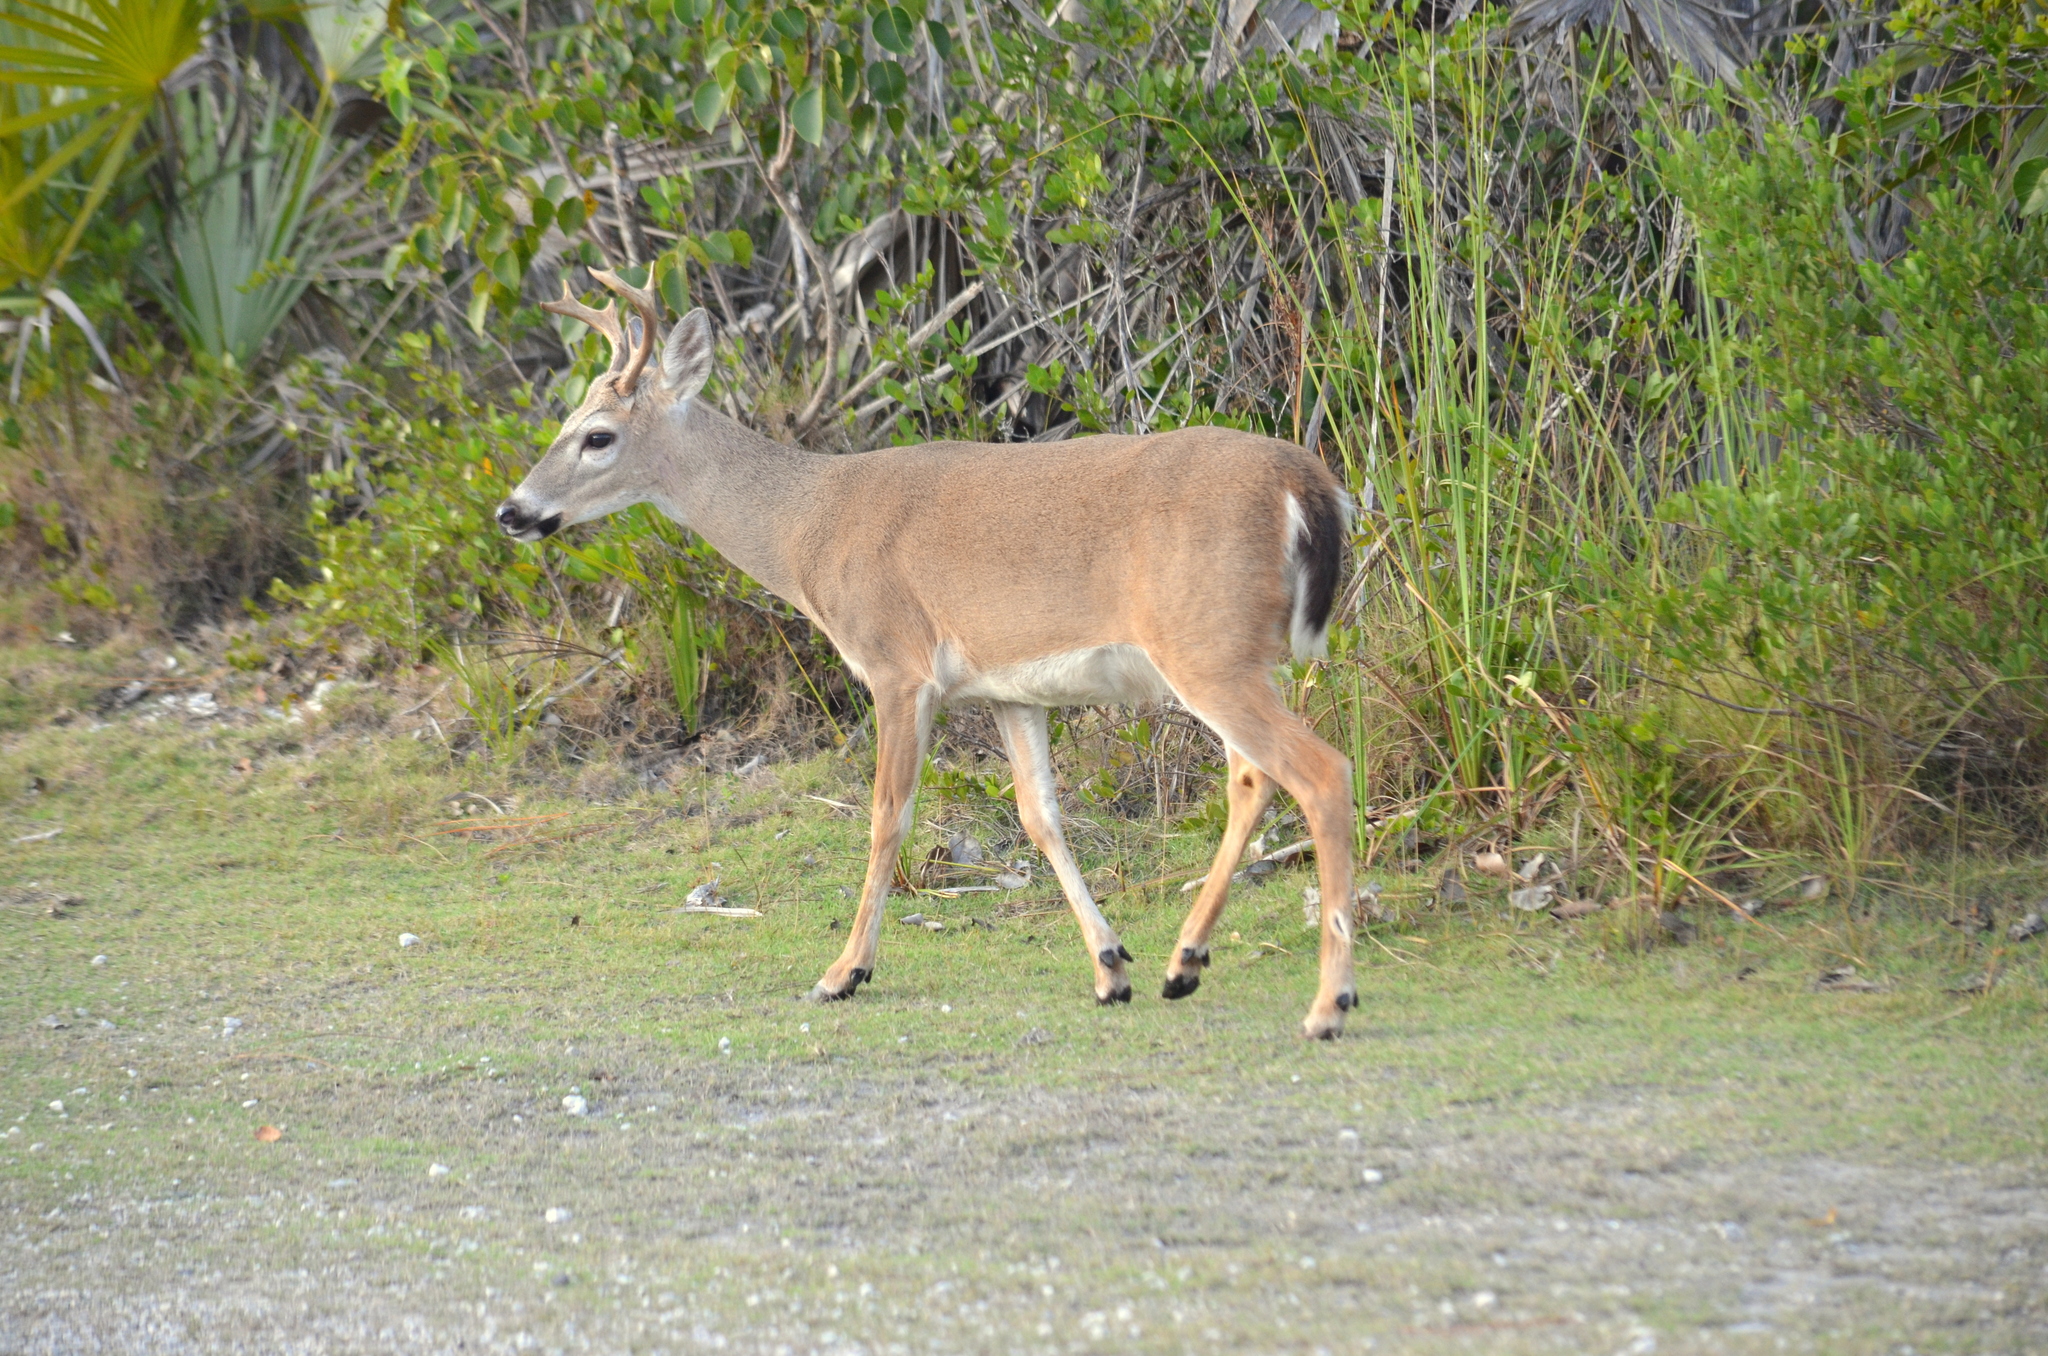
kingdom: Animalia
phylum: Chordata
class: Mammalia
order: Artiodactyla
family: Cervidae
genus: Odocoileus
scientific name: Odocoileus virginianus
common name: White-tailed deer
